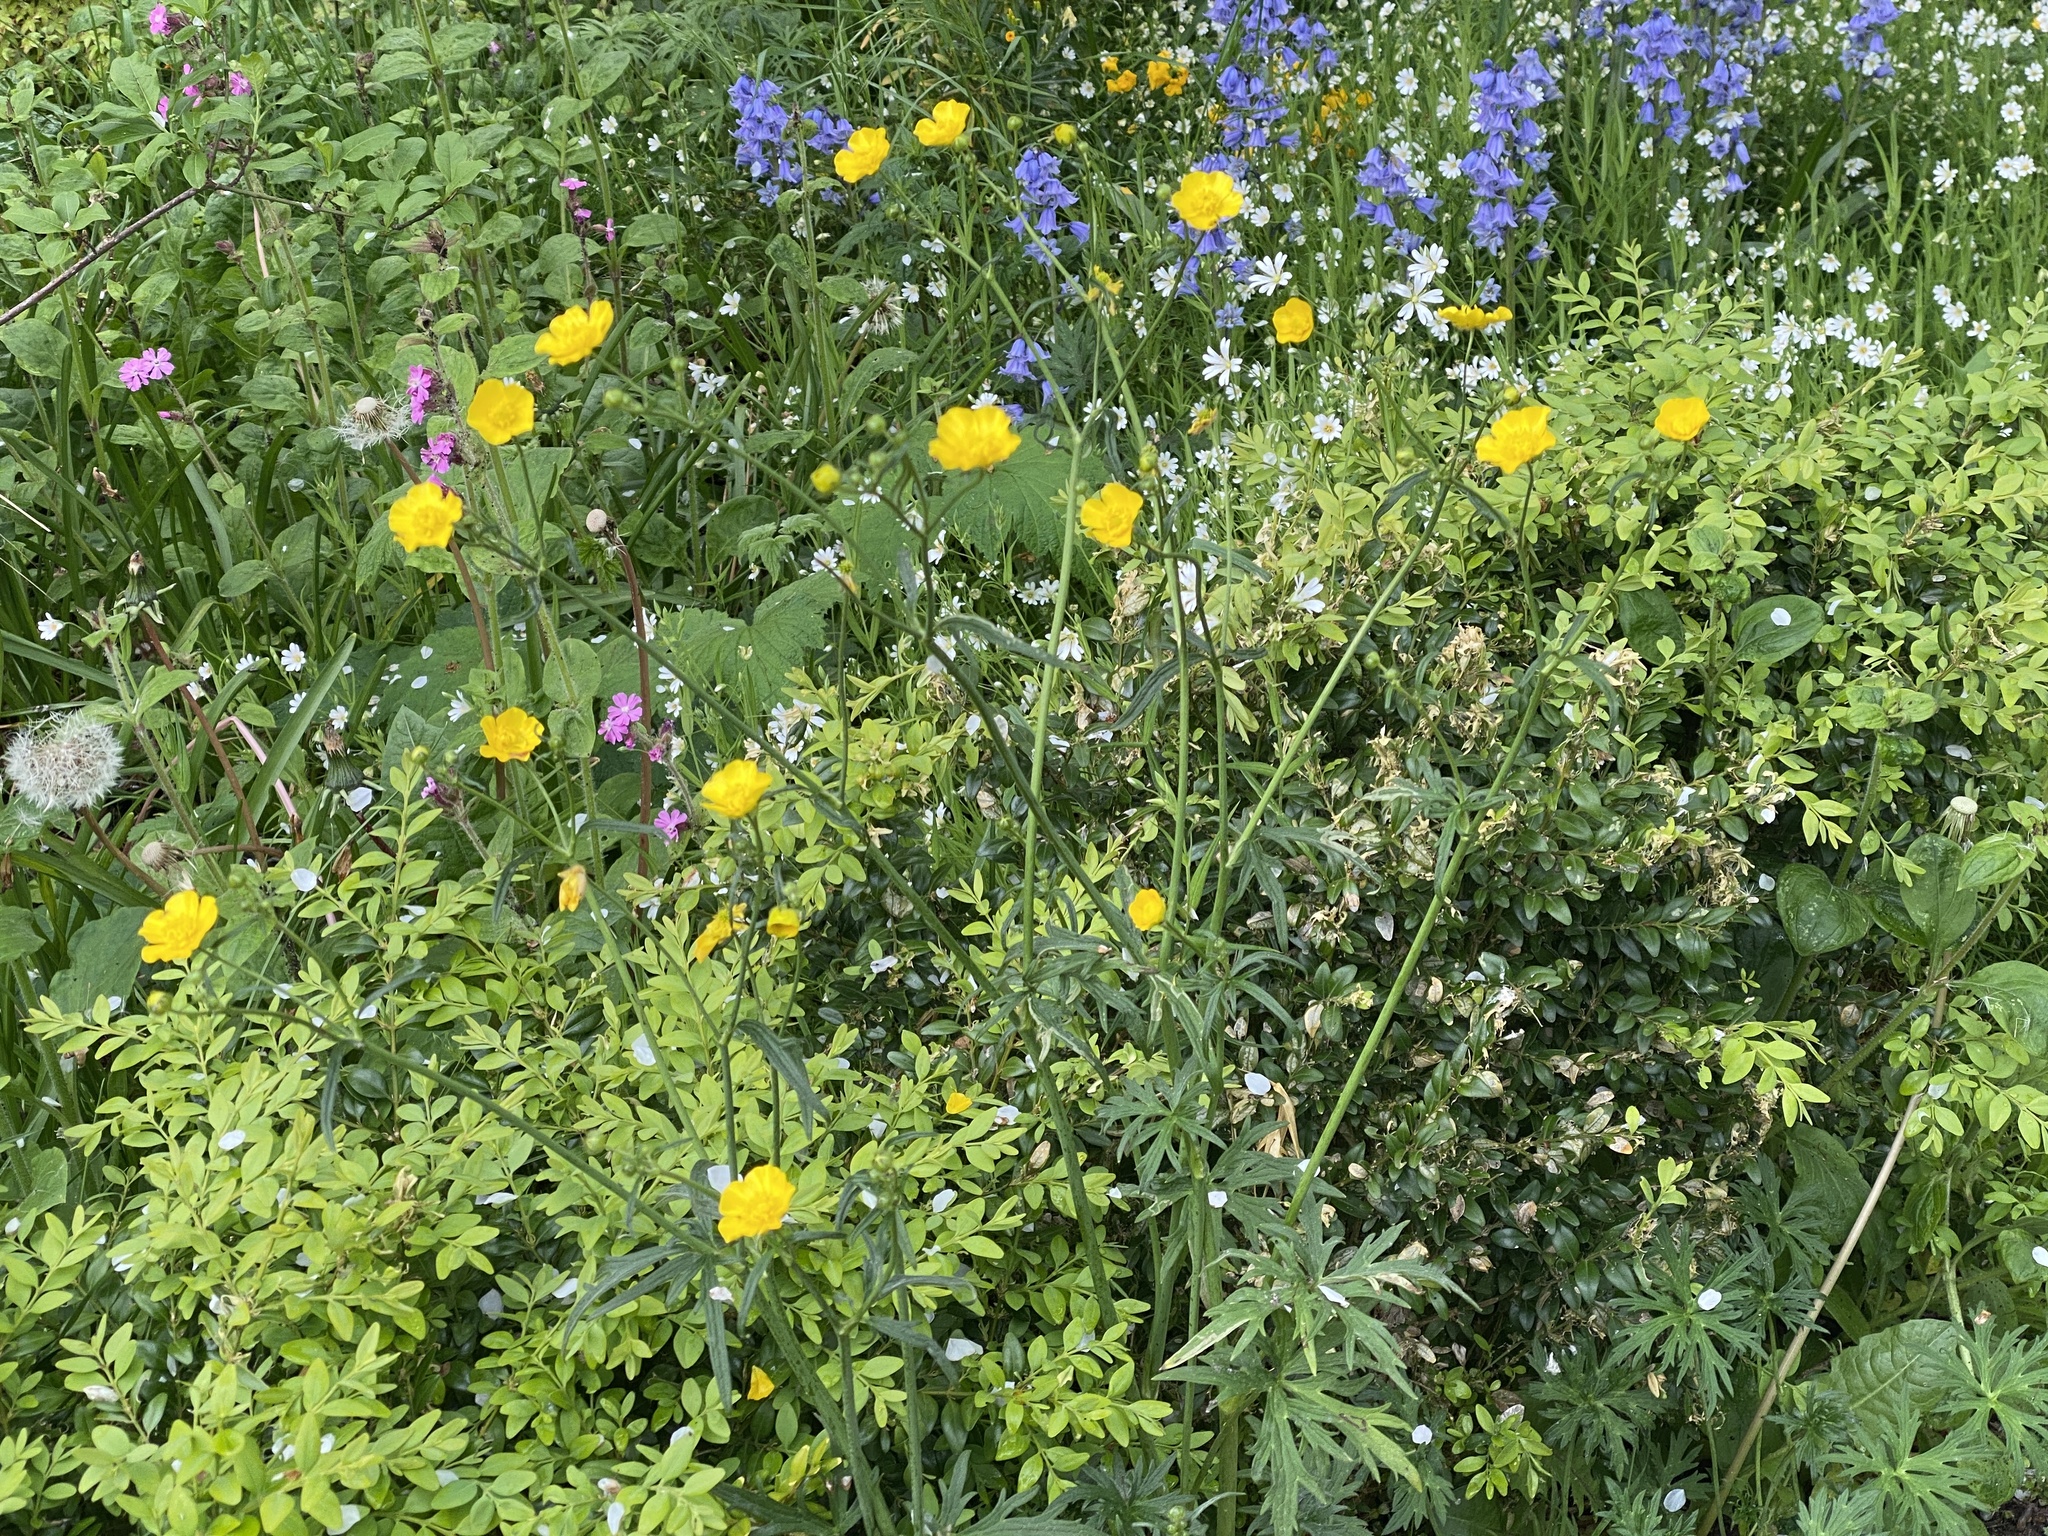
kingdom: Plantae
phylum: Tracheophyta
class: Magnoliopsida
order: Ranunculales
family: Ranunculaceae
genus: Ranunculus
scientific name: Ranunculus acris
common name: Meadow buttercup
